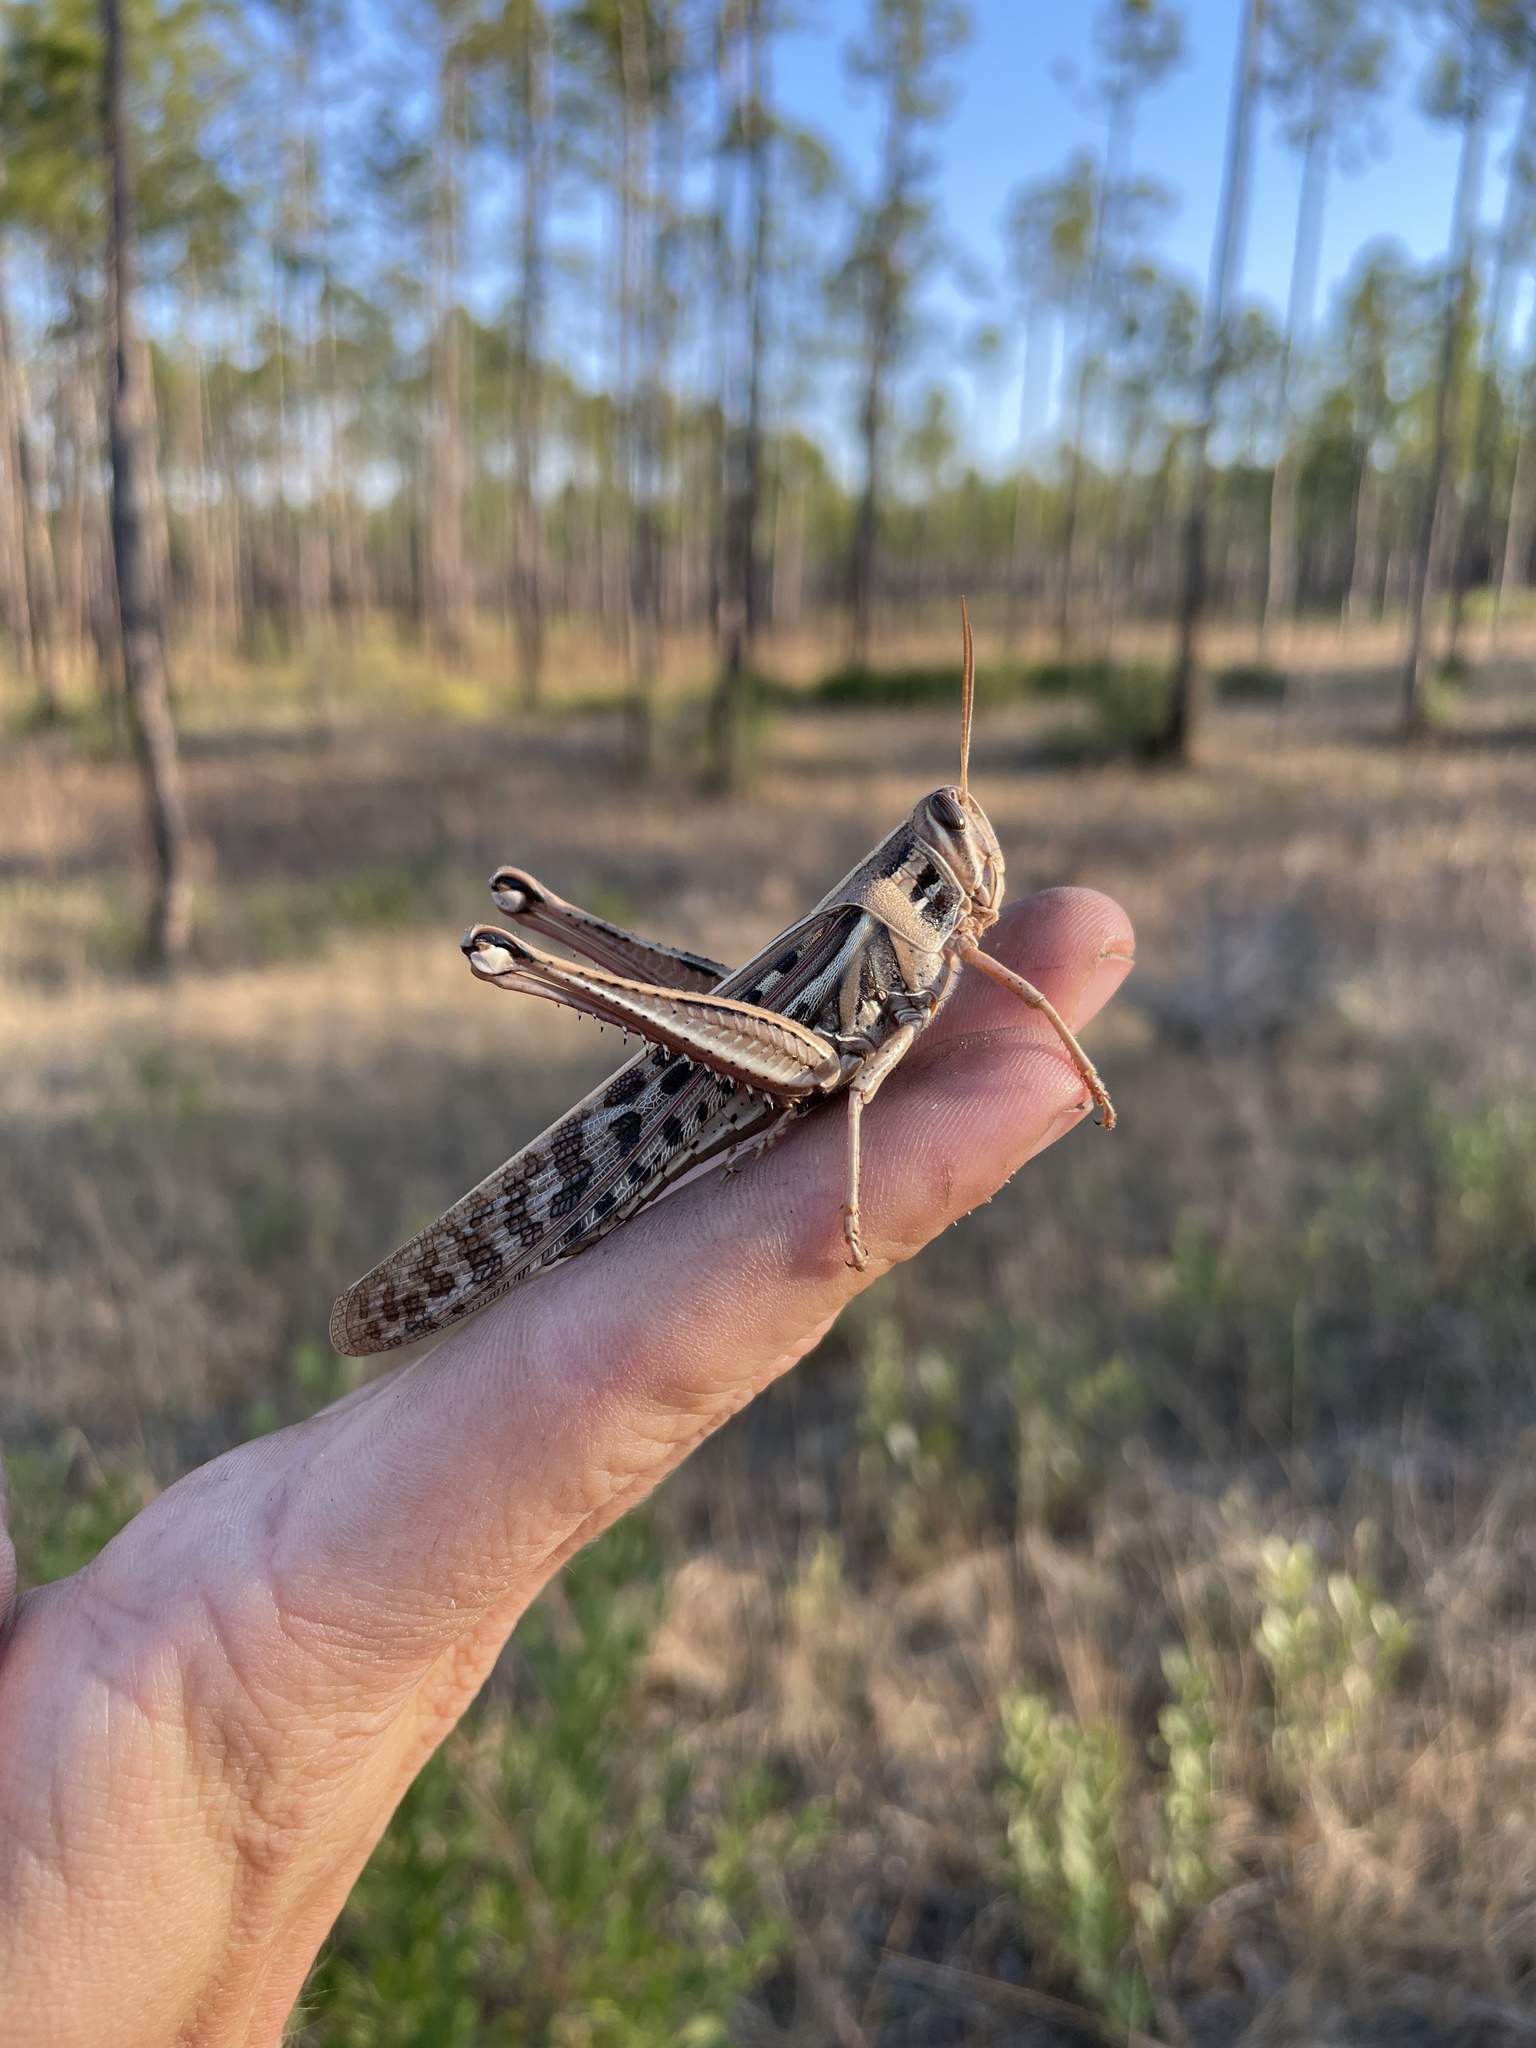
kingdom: Animalia
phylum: Arthropoda
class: Insecta
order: Orthoptera
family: Acrididae
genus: Schistocerca
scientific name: Schistocerca americana
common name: American bird locust
